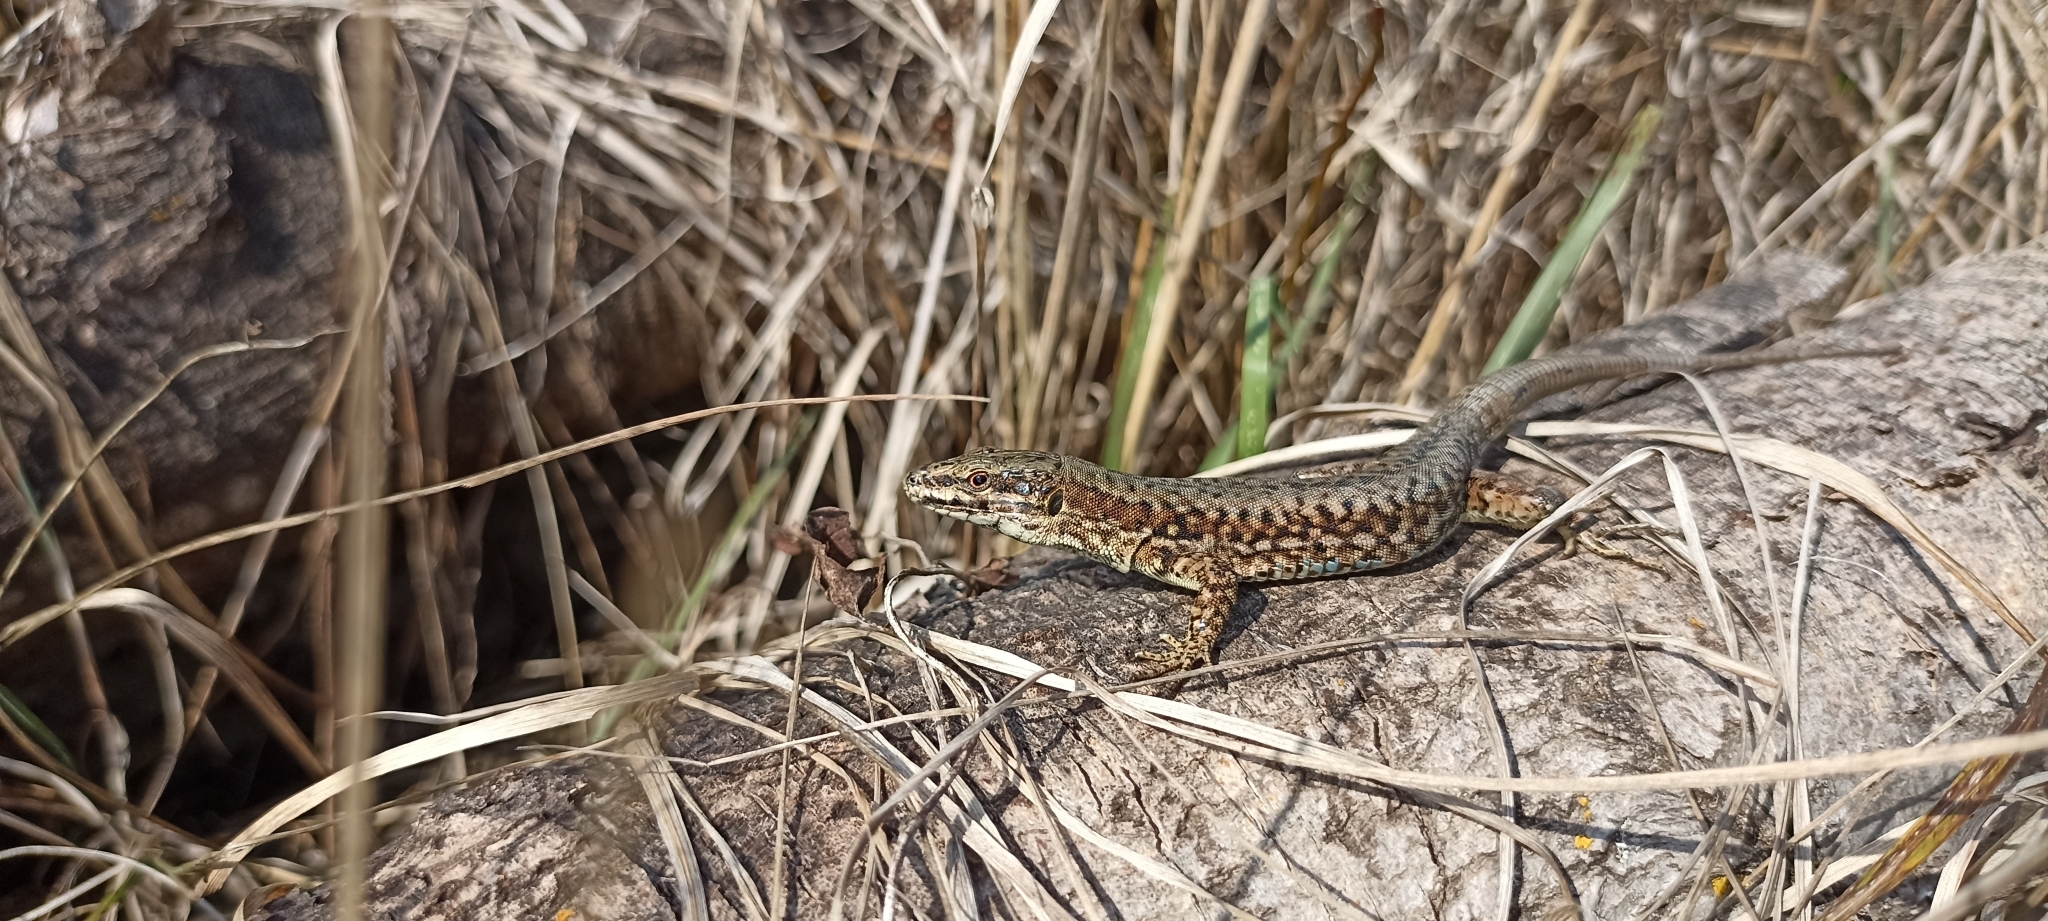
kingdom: Animalia
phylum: Chordata
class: Squamata
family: Lacertidae
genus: Podarcis
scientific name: Podarcis muralis
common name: Common wall lizard
